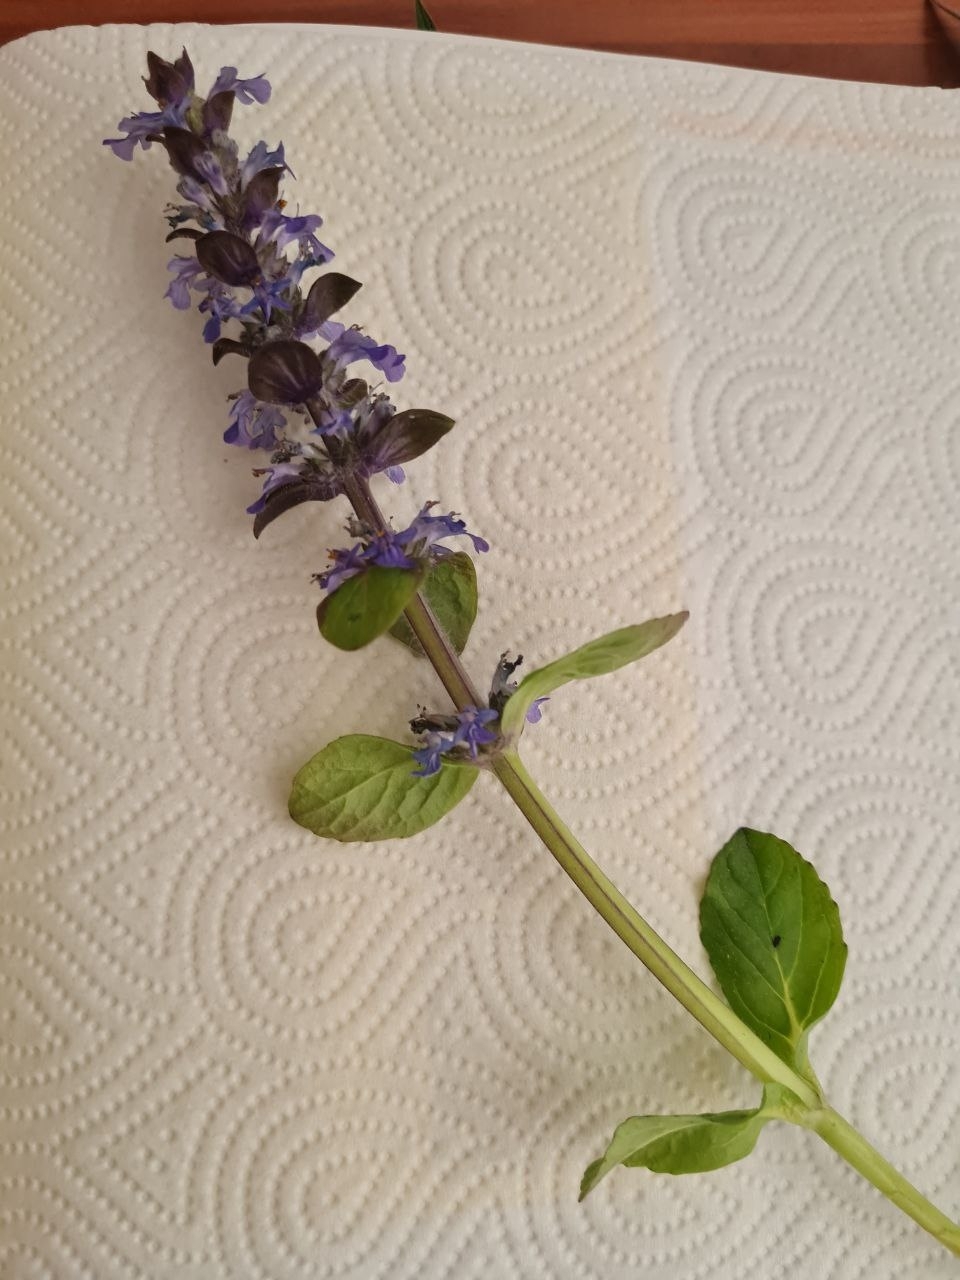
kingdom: Plantae
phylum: Tracheophyta
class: Magnoliopsida
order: Lamiales
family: Lamiaceae
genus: Ajuga
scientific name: Ajuga reptans
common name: Bugle
